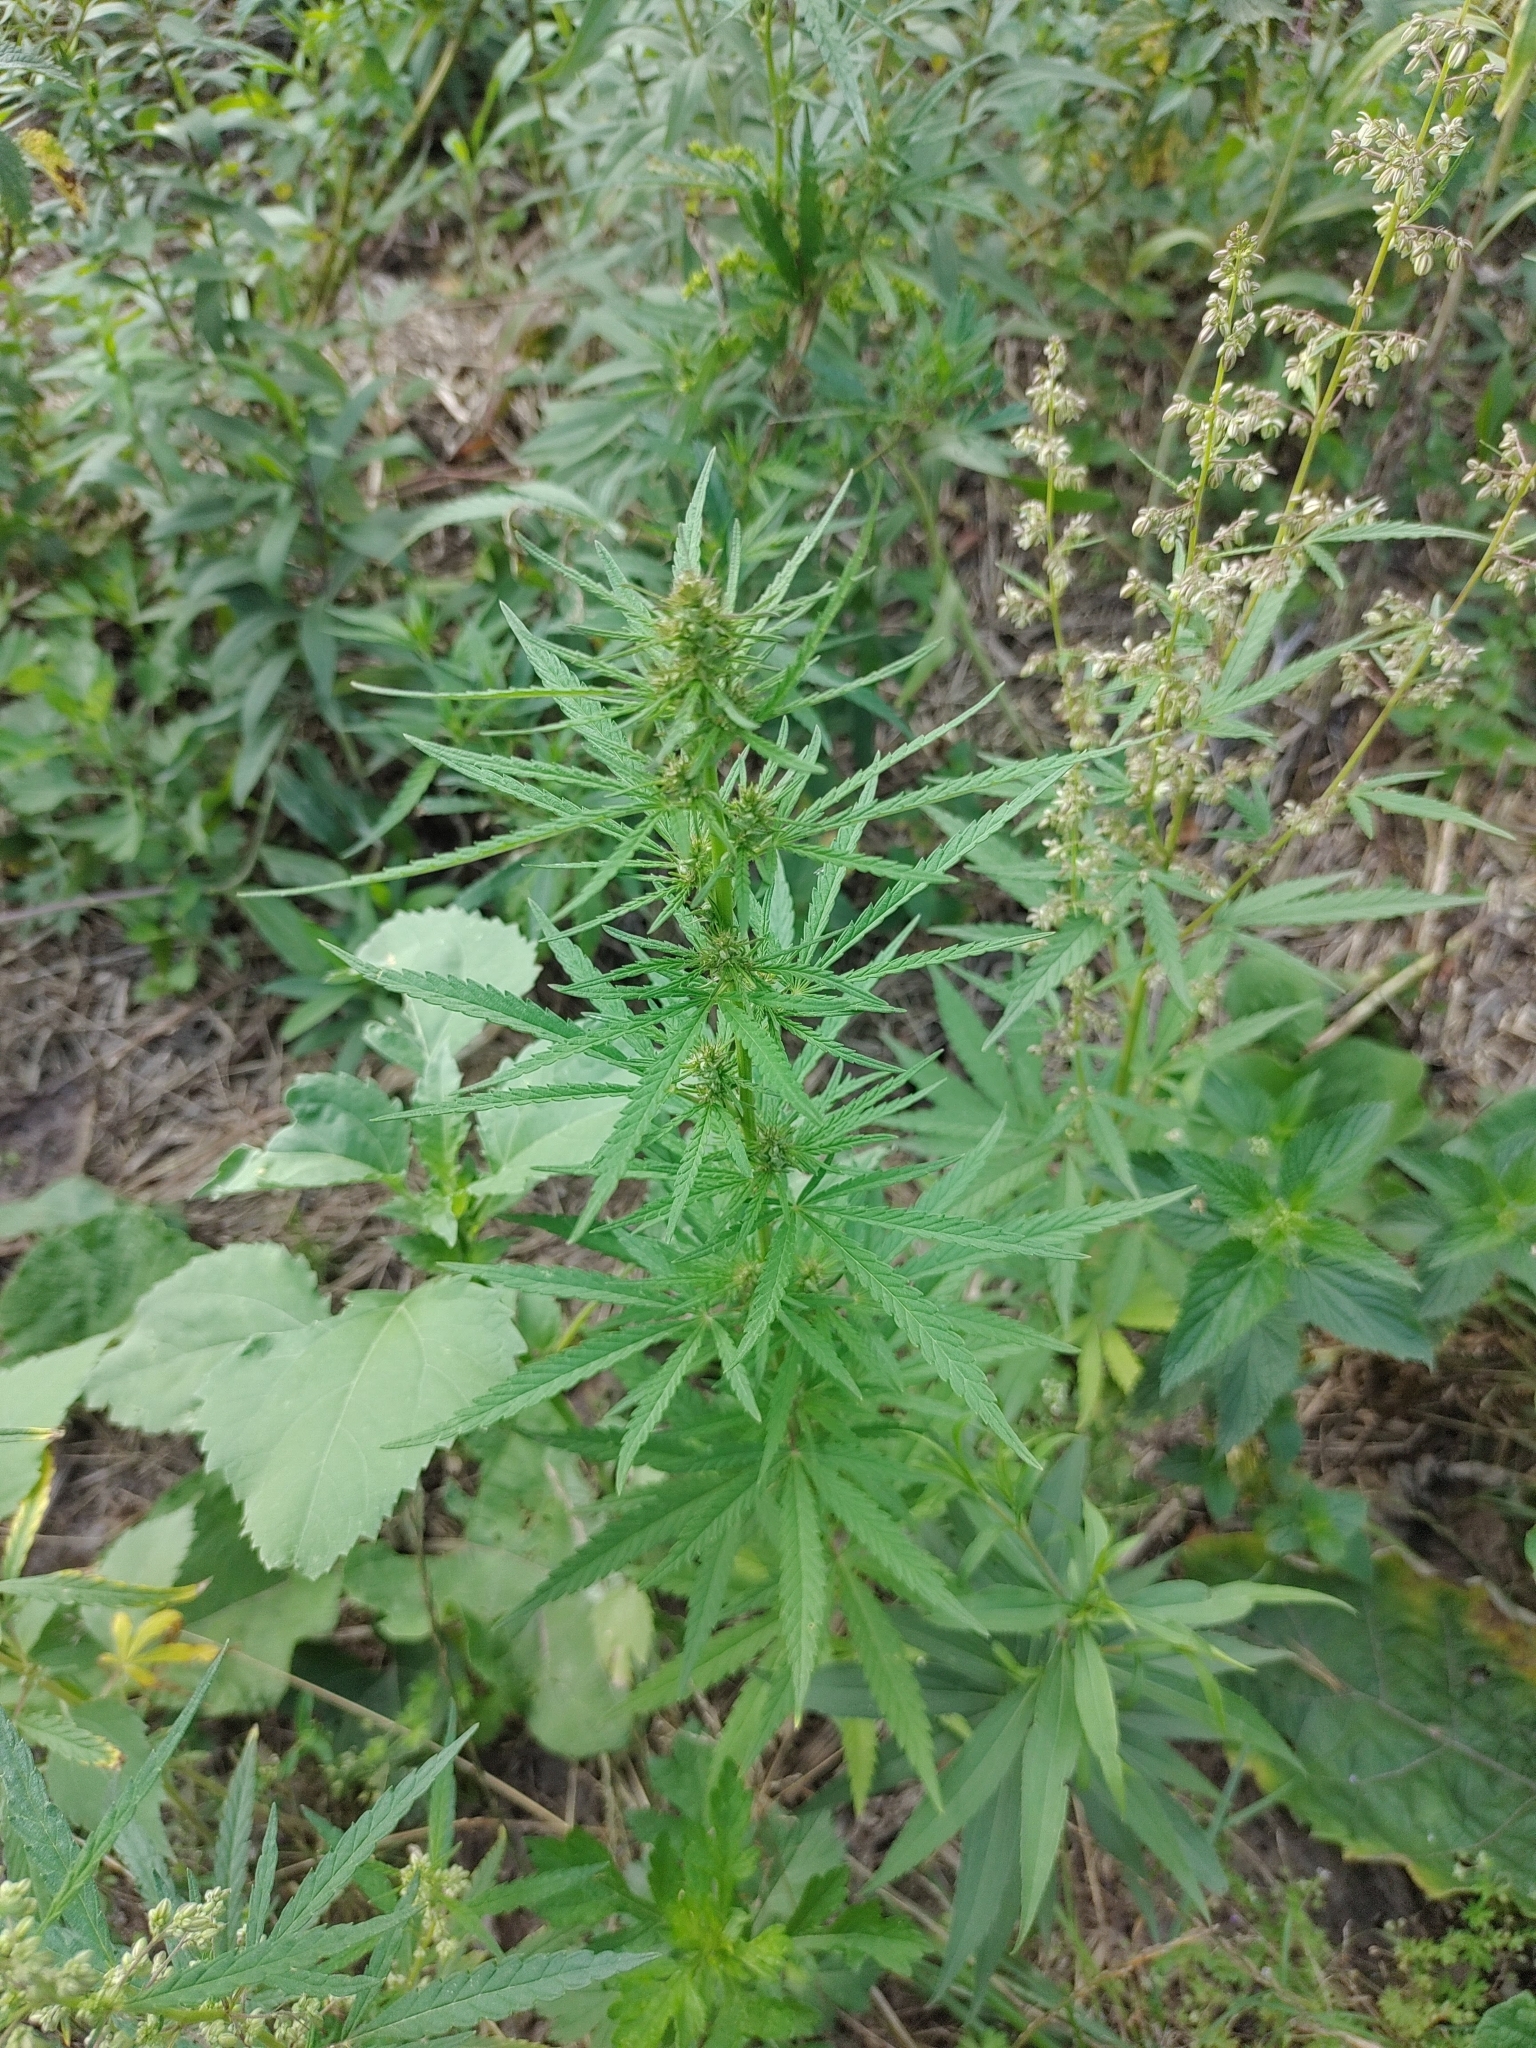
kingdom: Plantae
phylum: Tracheophyta
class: Magnoliopsida
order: Rosales
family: Cannabaceae
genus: Cannabis
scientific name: Cannabis sativa
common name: Hemp
